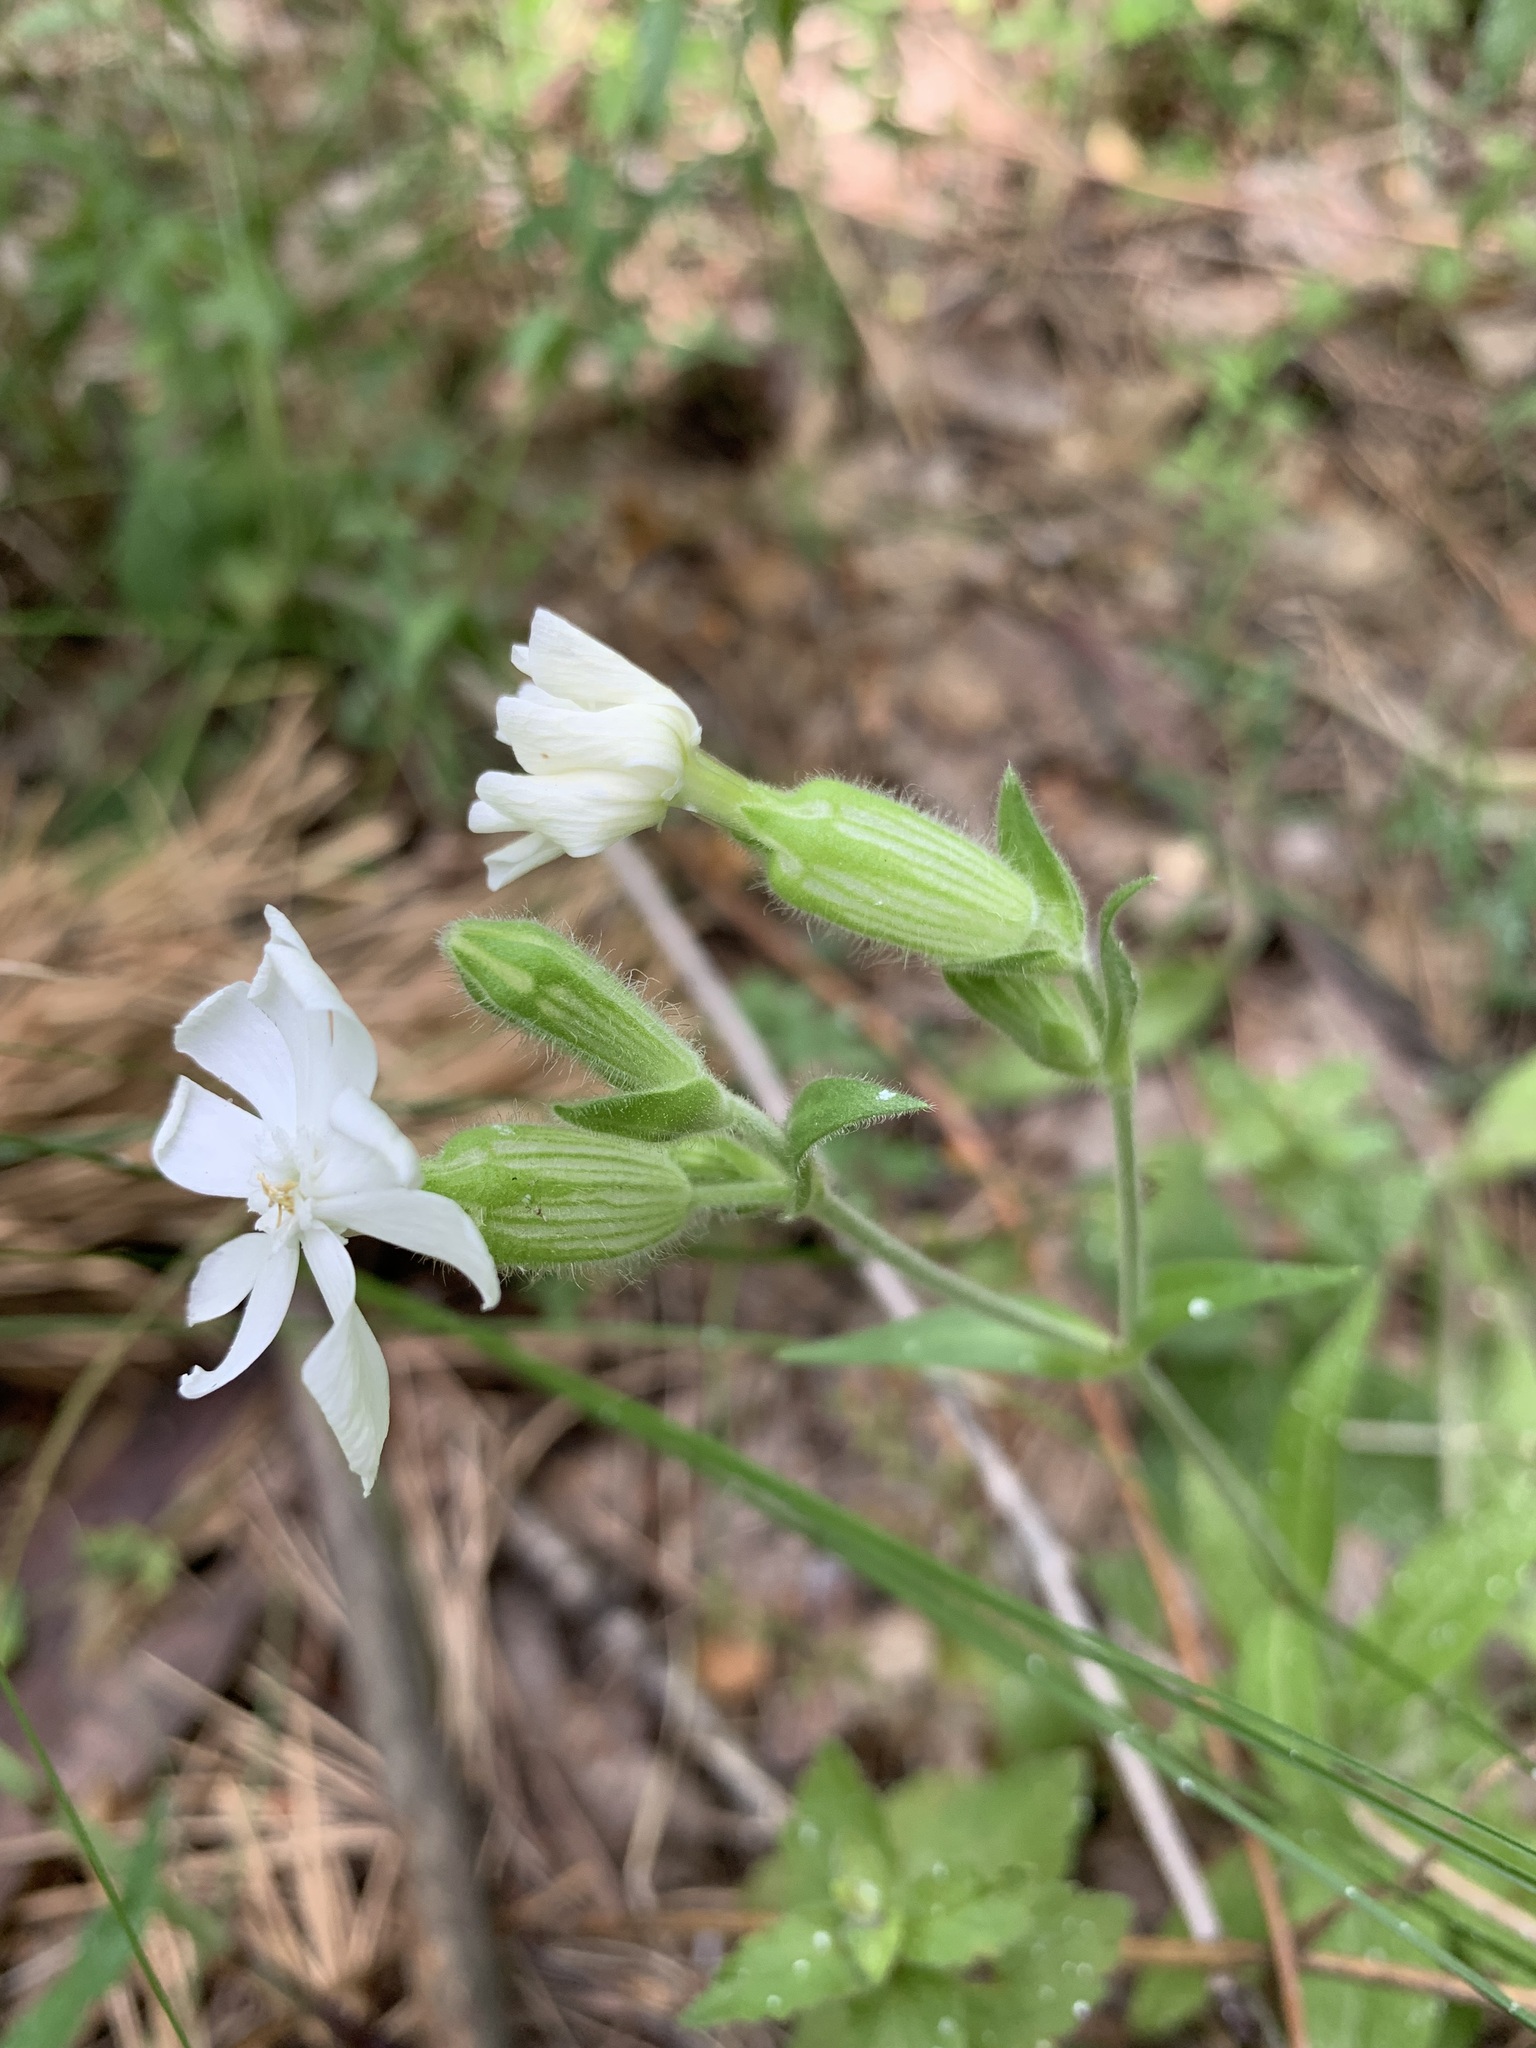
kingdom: Plantae
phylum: Tracheophyta
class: Magnoliopsida
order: Caryophyllales
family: Caryophyllaceae
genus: Silene
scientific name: Silene latifolia
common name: White campion
